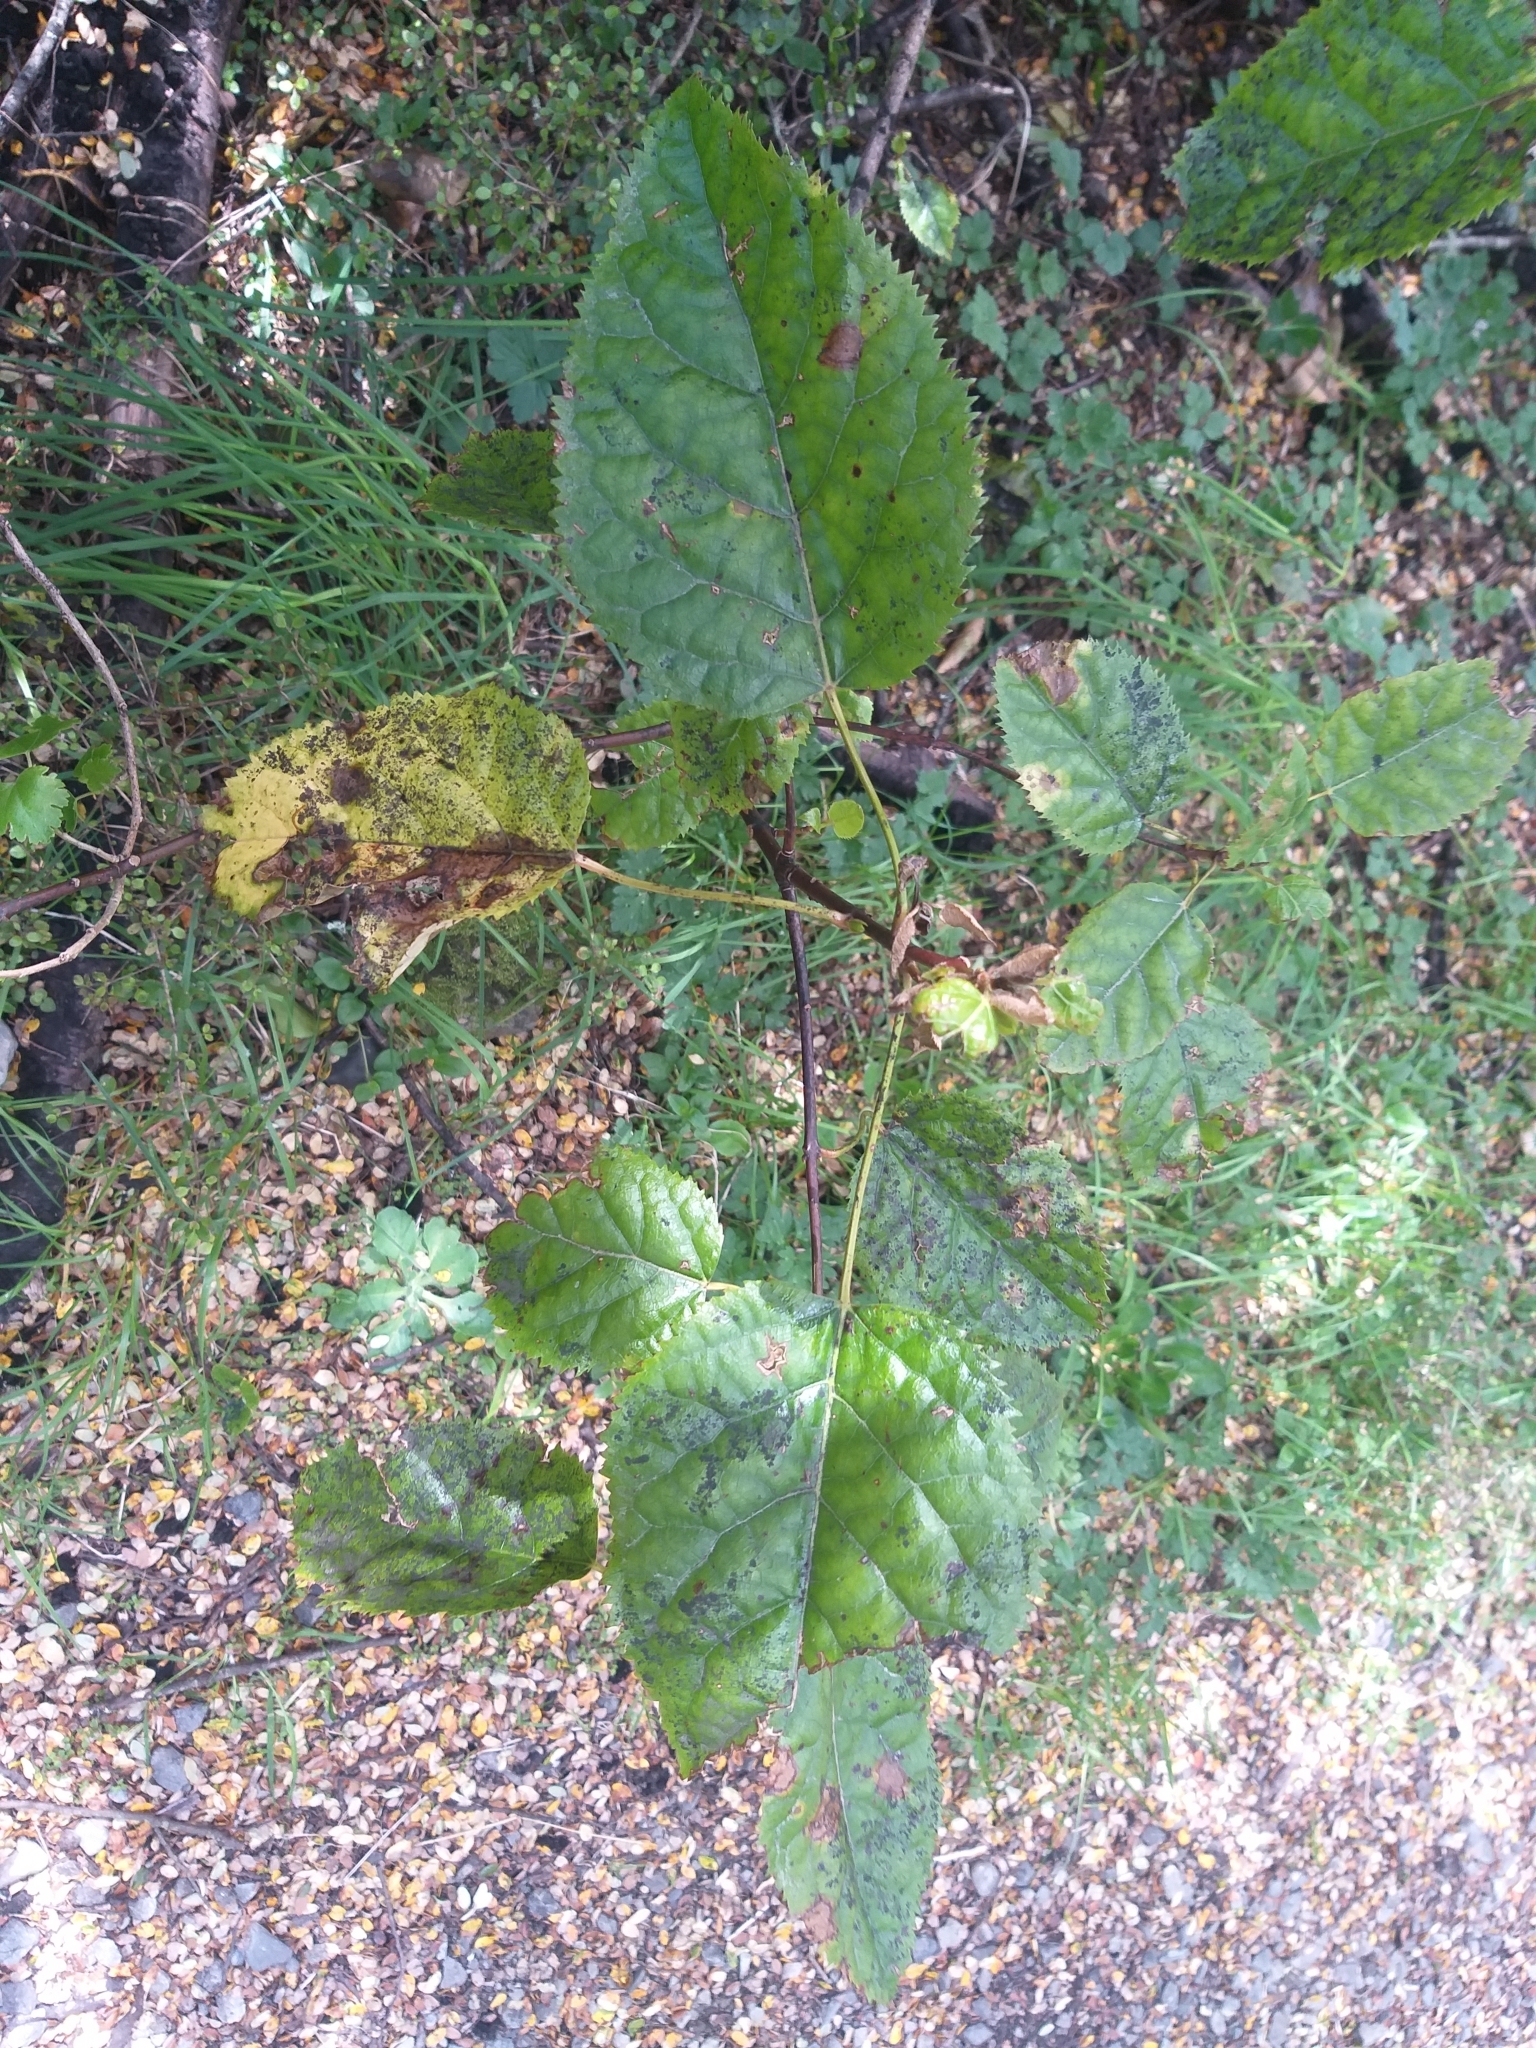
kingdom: Plantae
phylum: Tracheophyta
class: Magnoliopsida
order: Oxalidales
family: Elaeocarpaceae
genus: Aristotelia
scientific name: Aristotelia serrata
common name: New zealand wineberry
